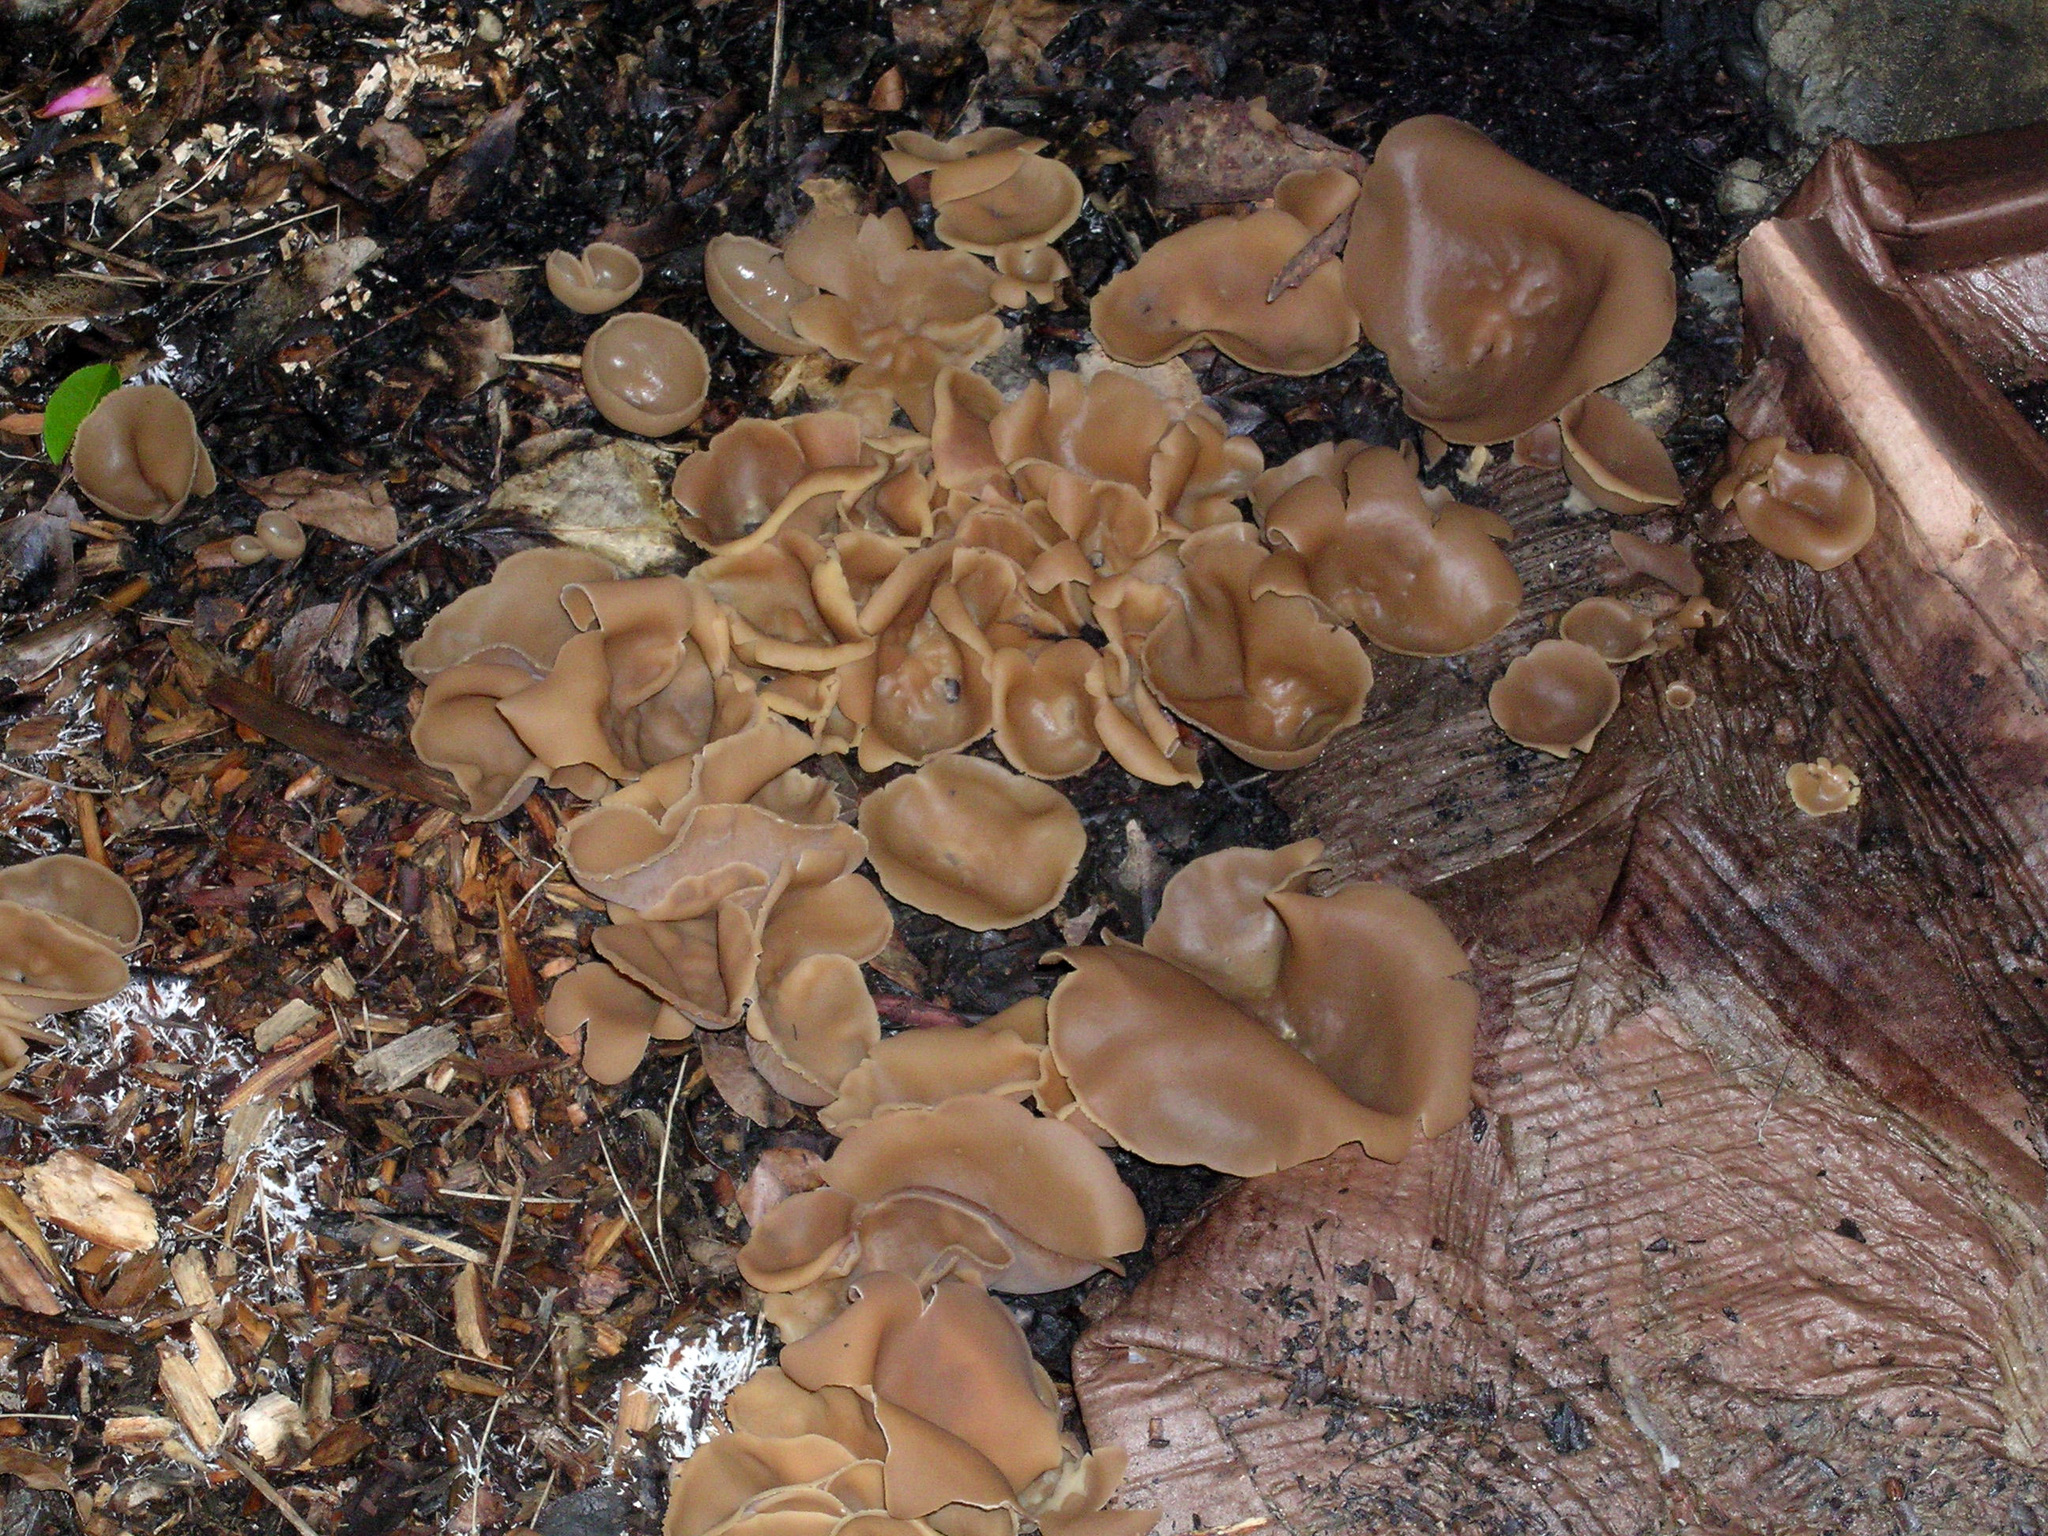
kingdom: Fungi
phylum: Ascomycota
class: Pezizomycetes
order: Pezizales
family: Pezizaceae
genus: Peziza
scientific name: Peziza varia
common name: Layered cup
